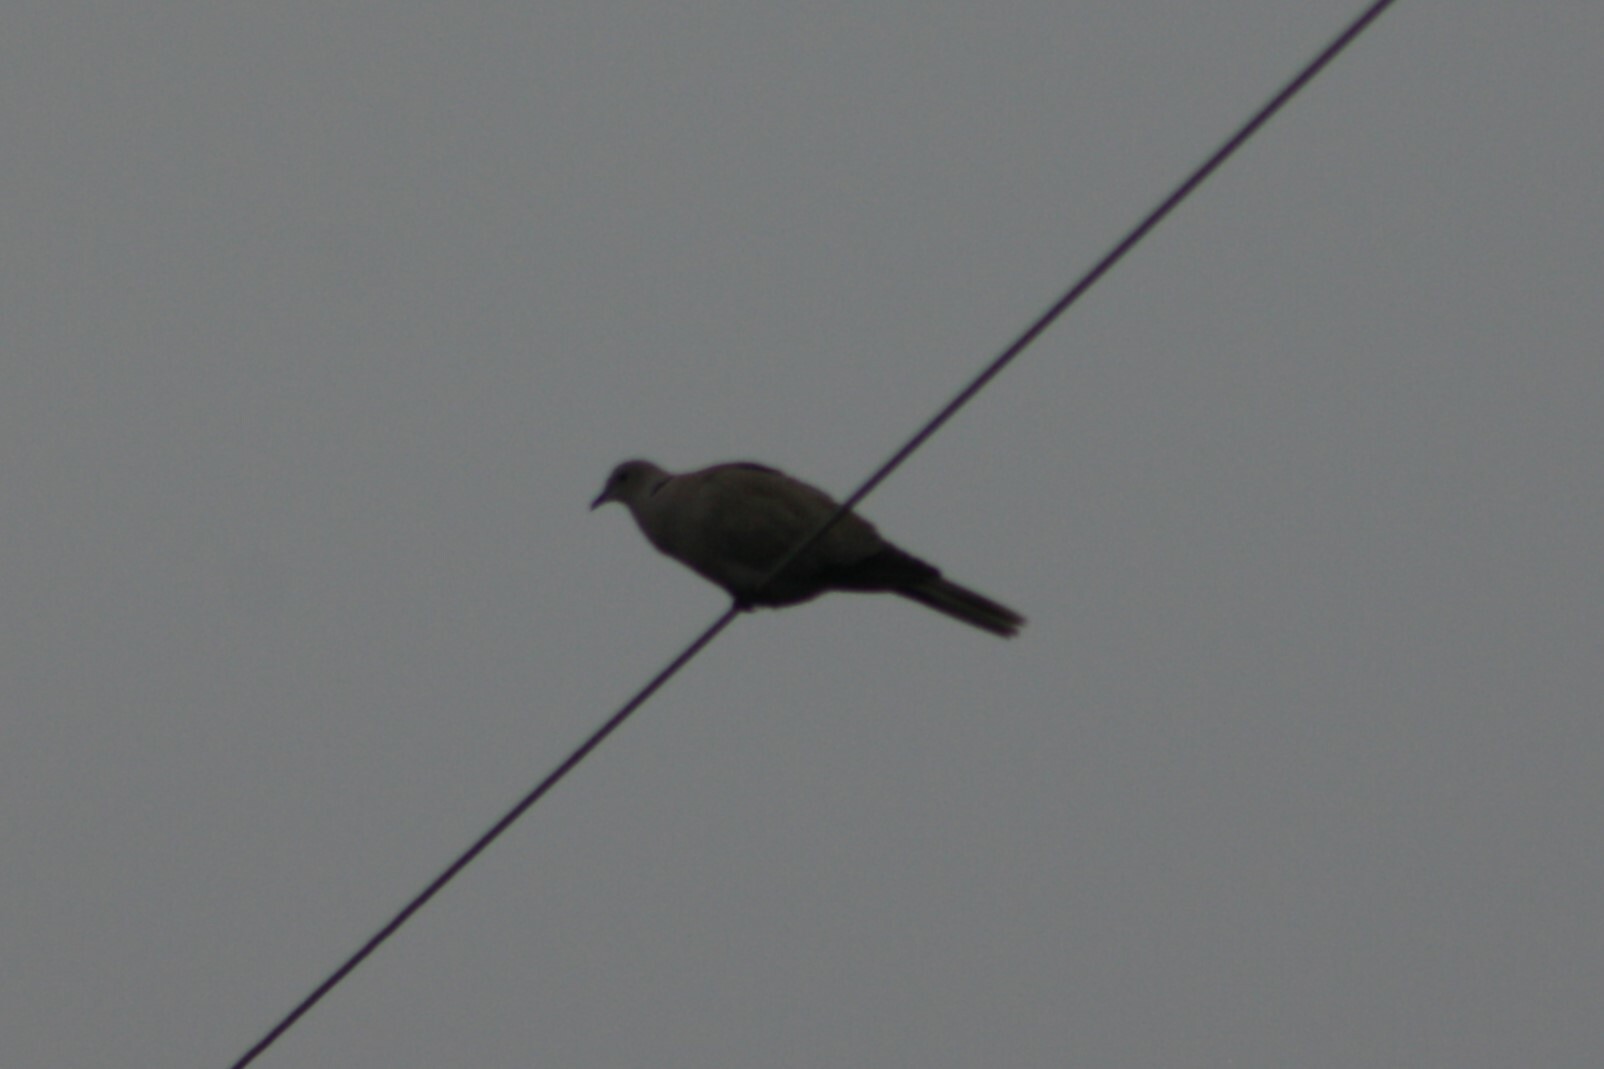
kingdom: Animalia
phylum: Chordata
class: Aves
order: Columbiformes
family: Columbidae
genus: Streptopelia
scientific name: Streptopelia decaocto
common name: Eurasian collared dove
